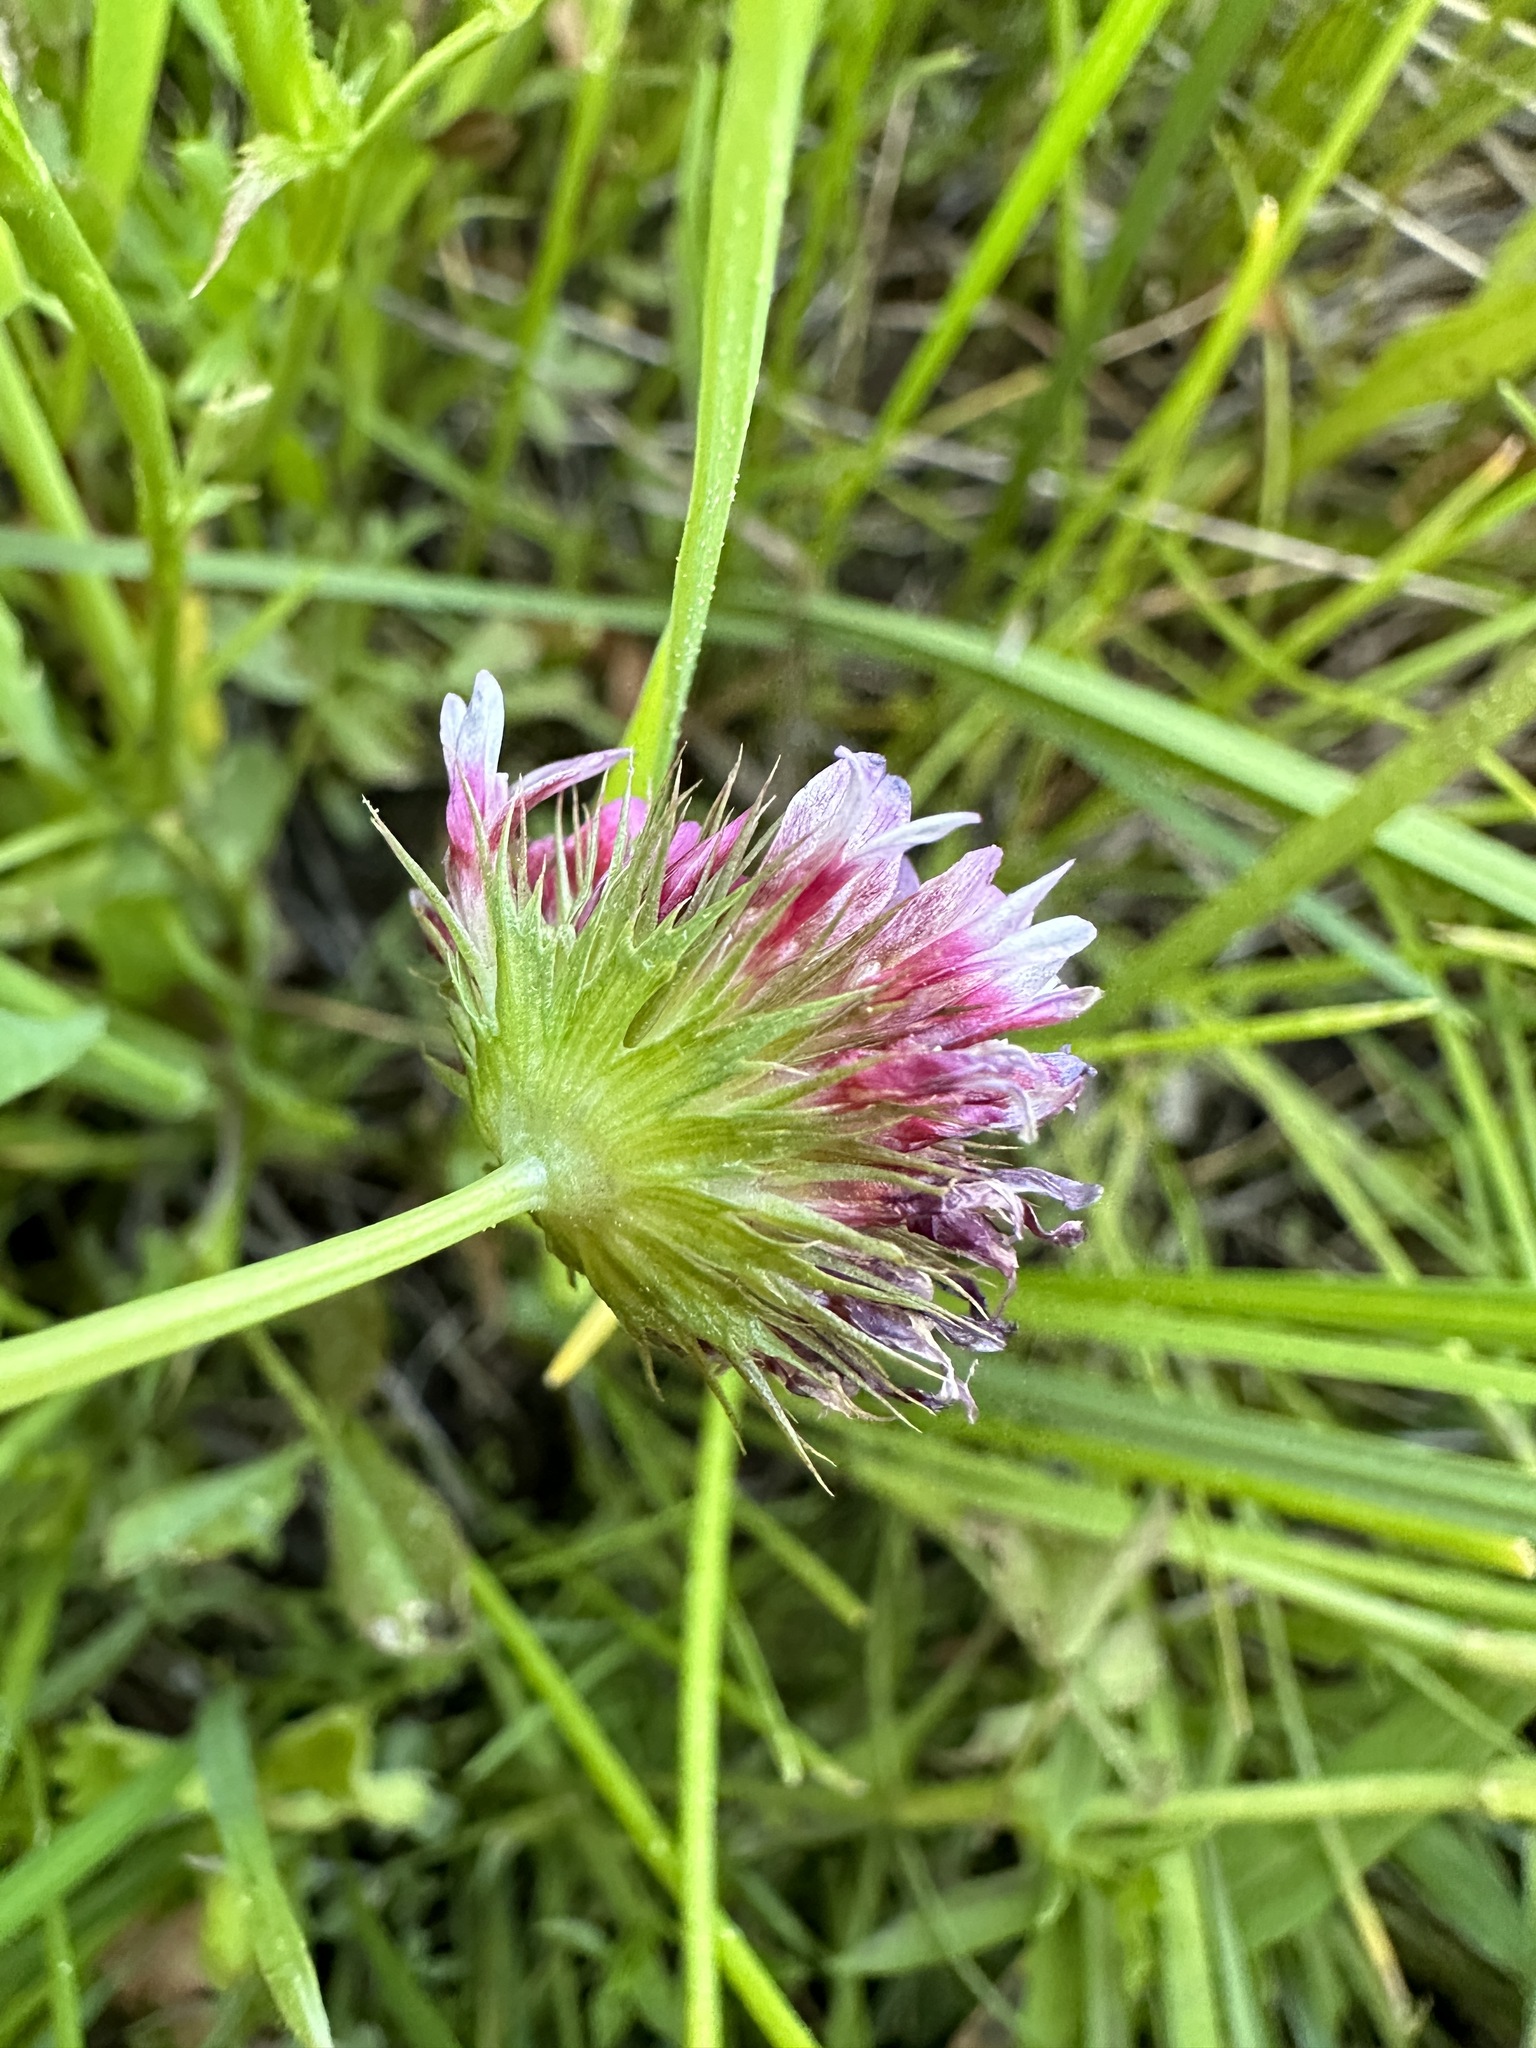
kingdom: Plantae
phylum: Tracheophyta
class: Magnoliopsida
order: Fabales
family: Fabaceae
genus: Trifolium
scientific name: Trifolium wormskioldii
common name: Springbank clover
